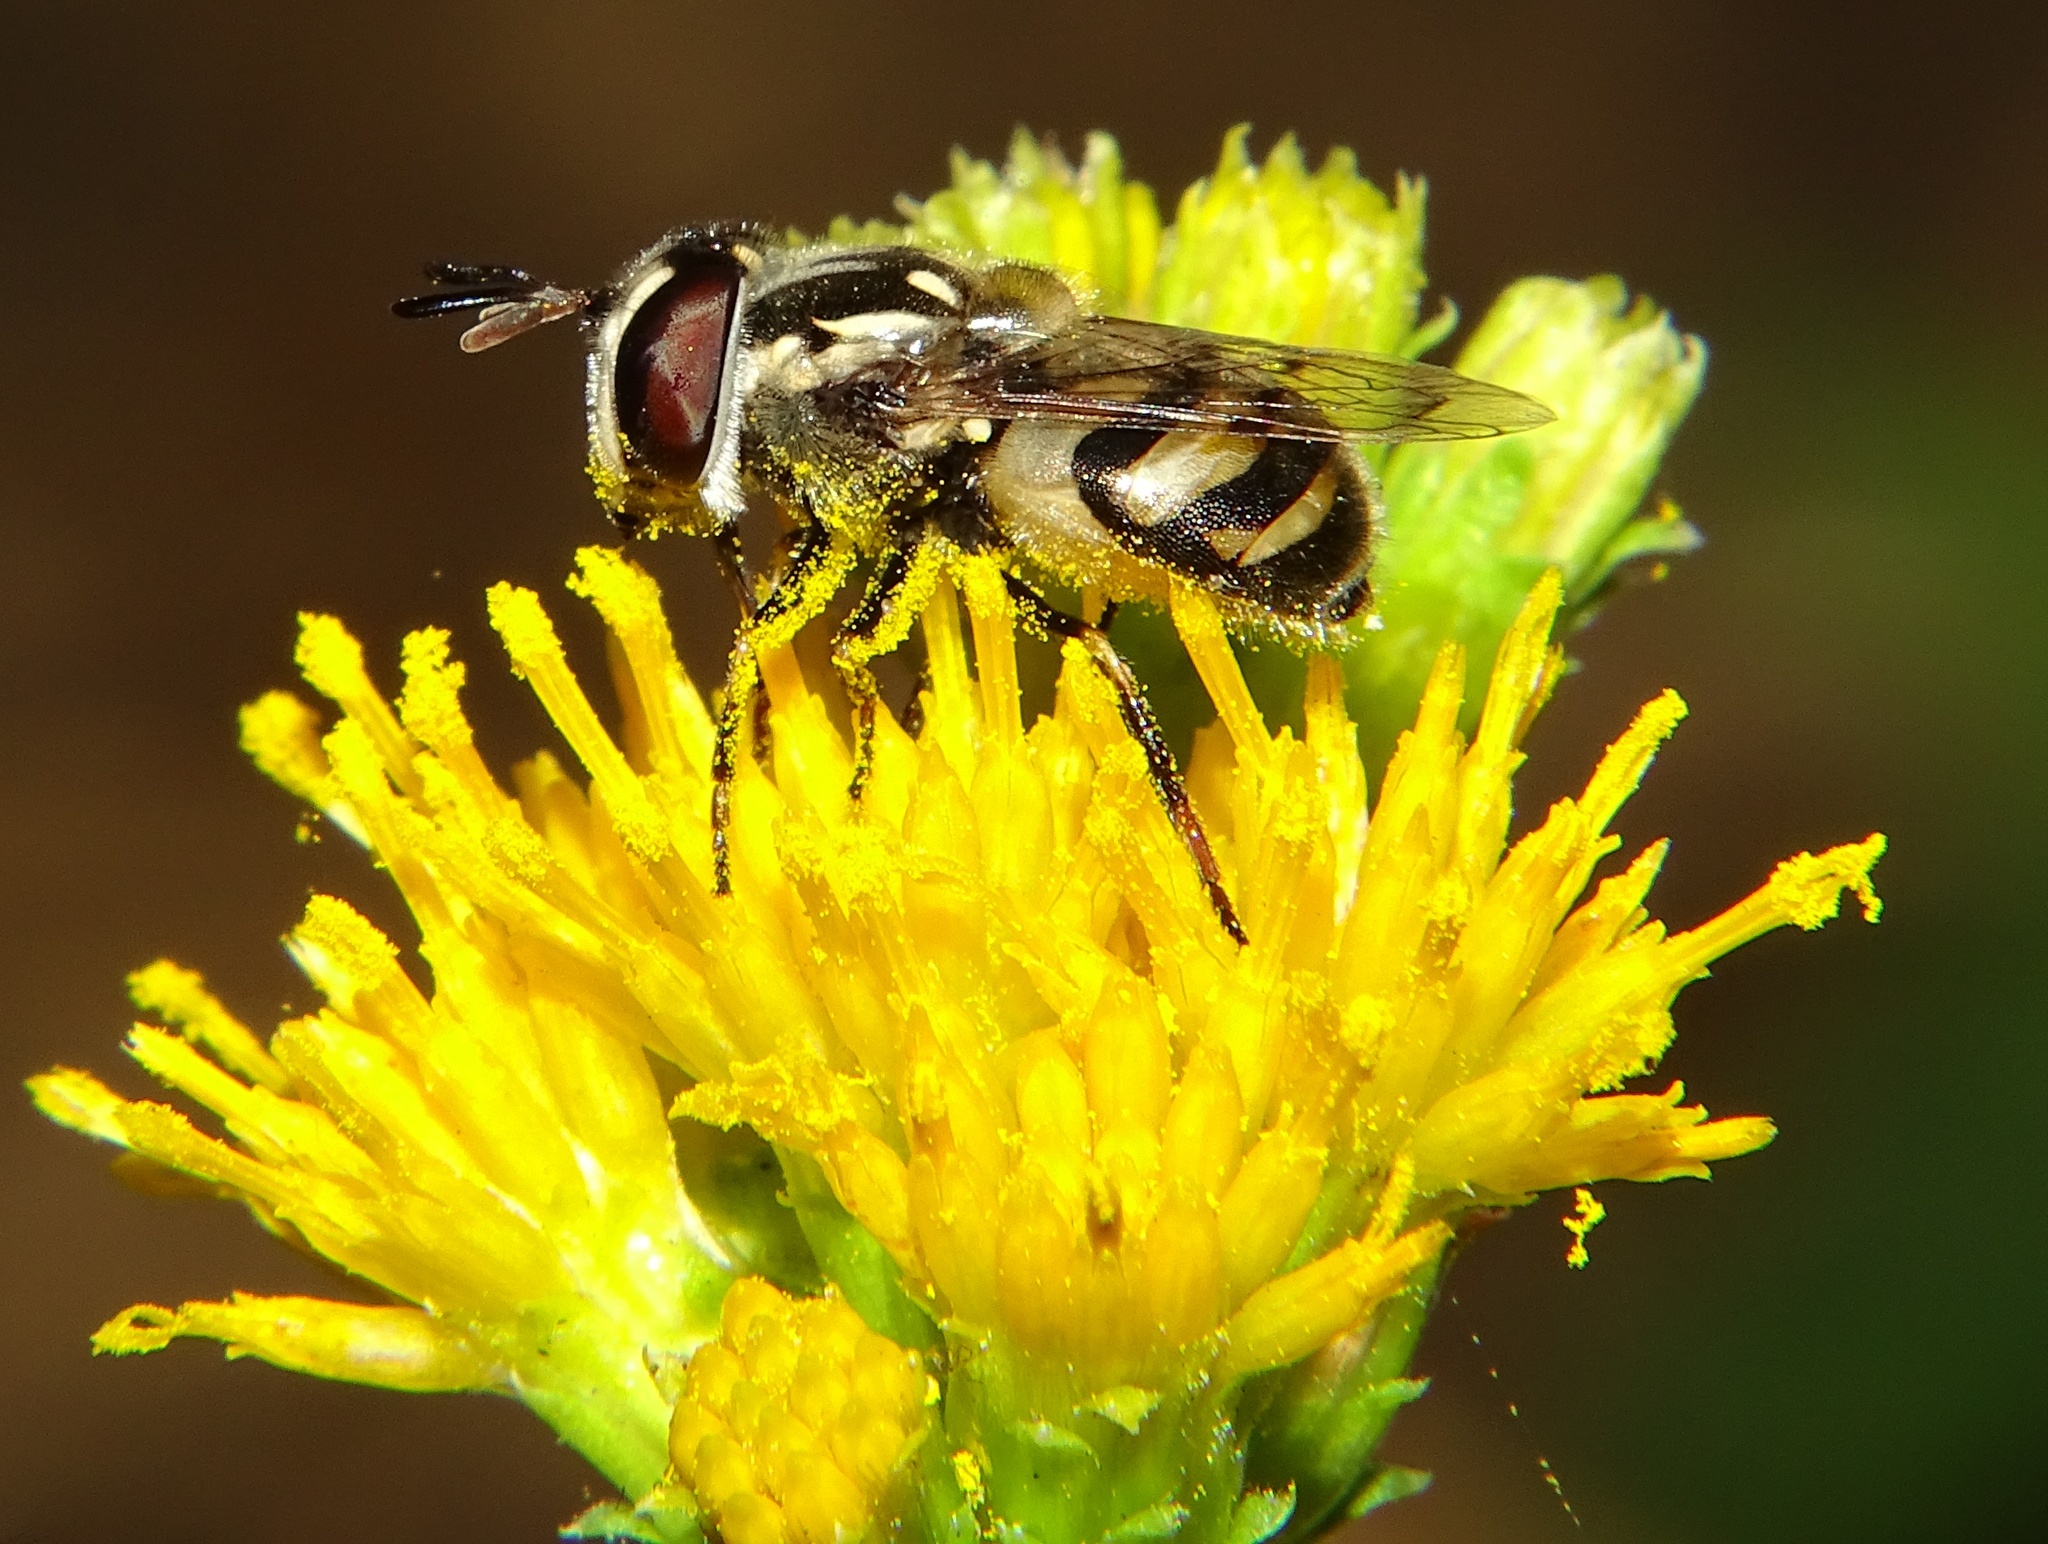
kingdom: Animalia
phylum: Arthropoda
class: Insecta
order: Diptera
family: Syrphidae
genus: Copestylum
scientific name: Copestylum marginatum
